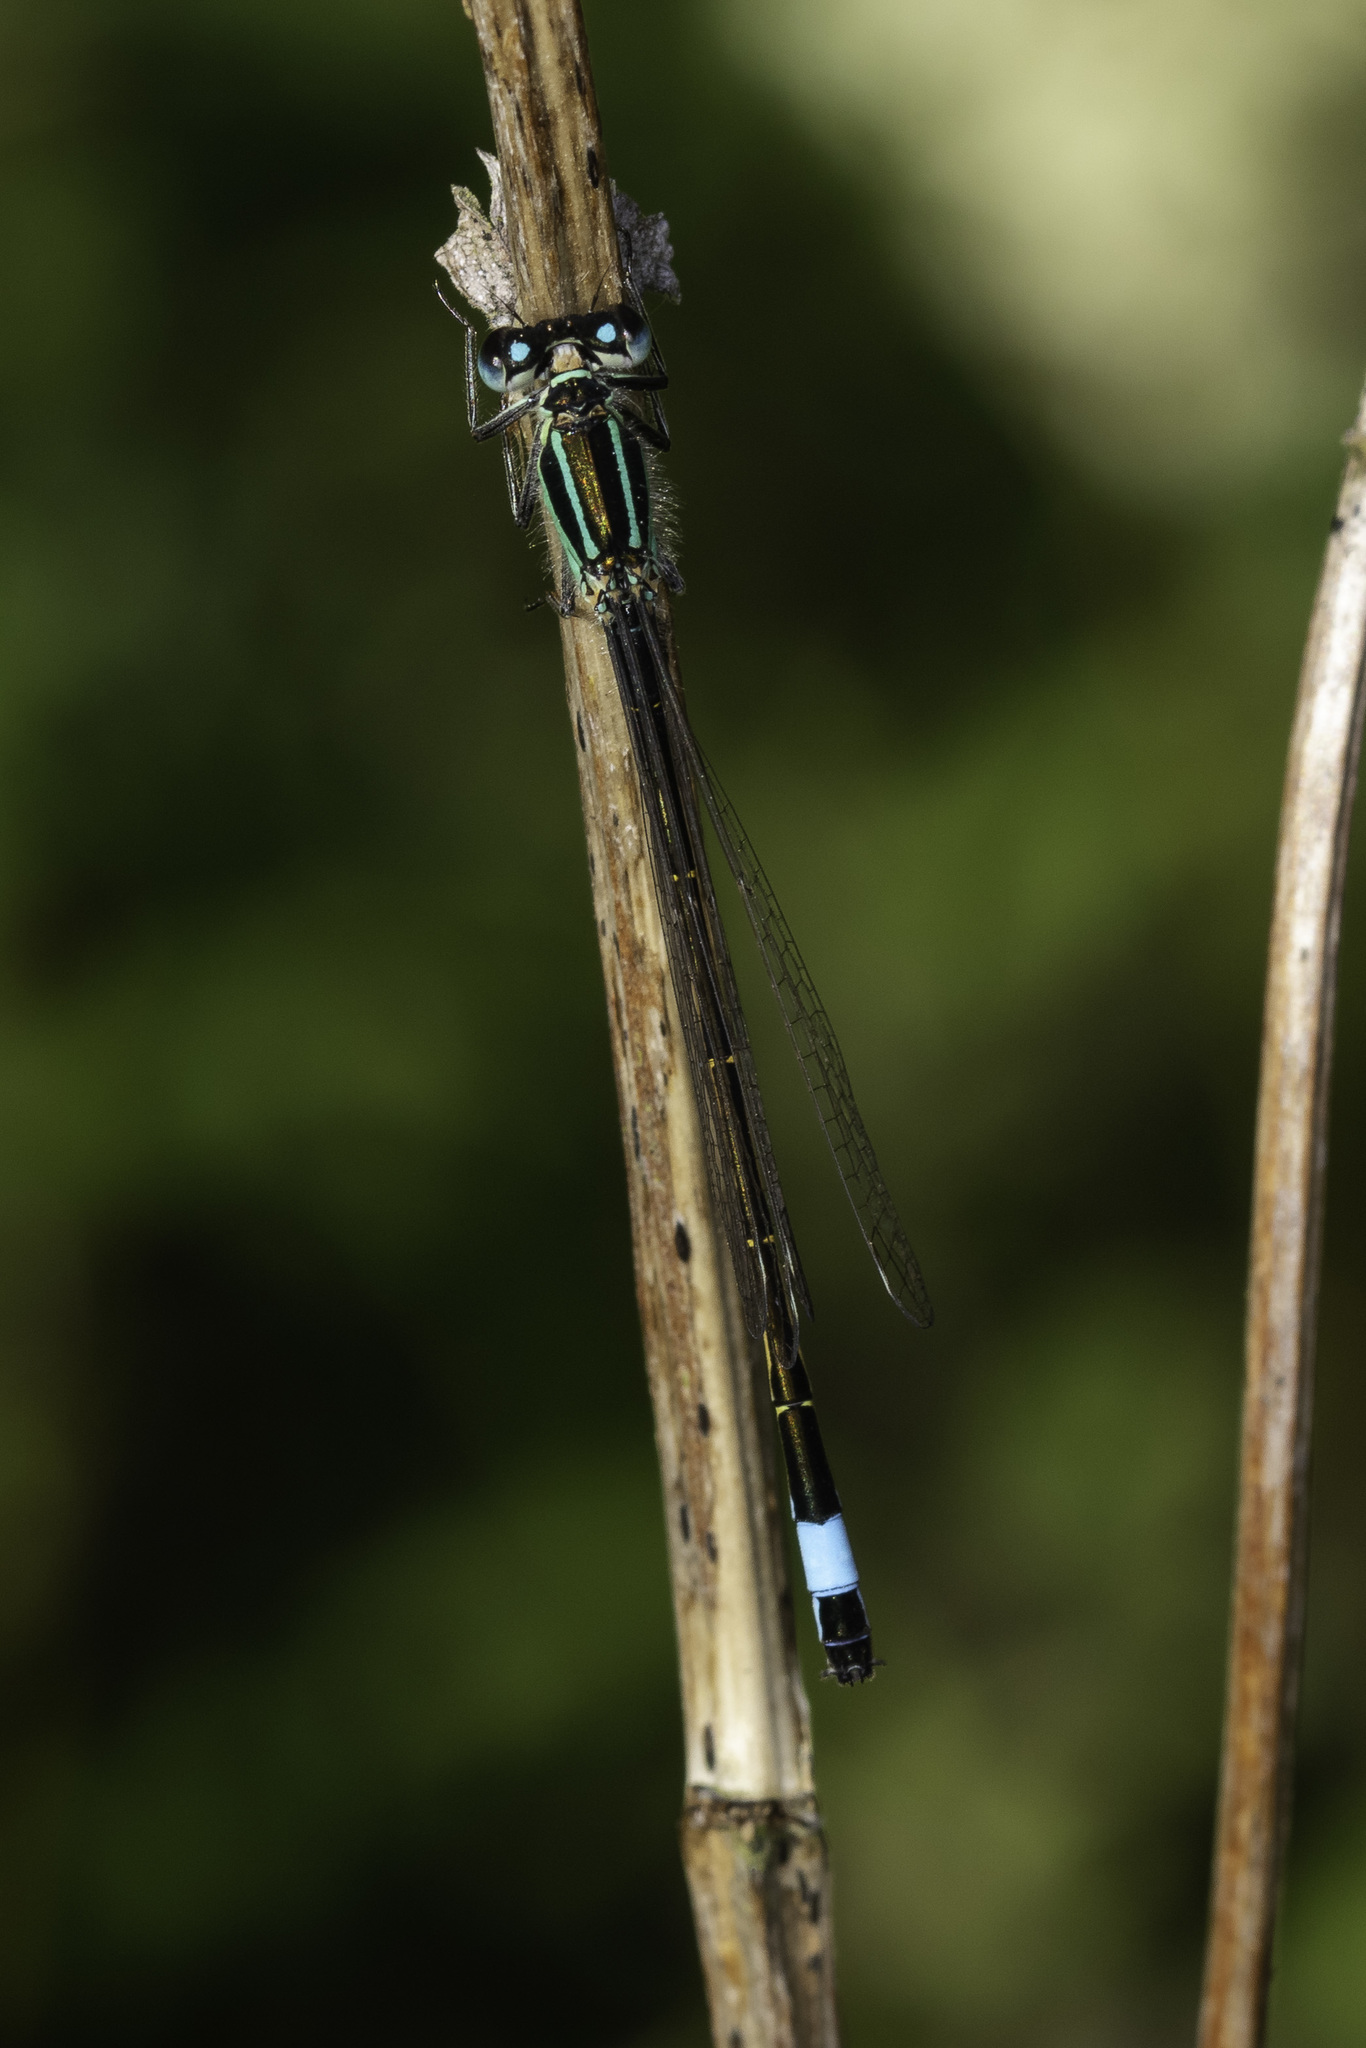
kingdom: Animalia
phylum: Arthropoda
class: Insecta
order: Odonata
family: Coenagrionidae
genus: Ischnura
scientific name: Ischnura elegans
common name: Blue-tailed damselfly
